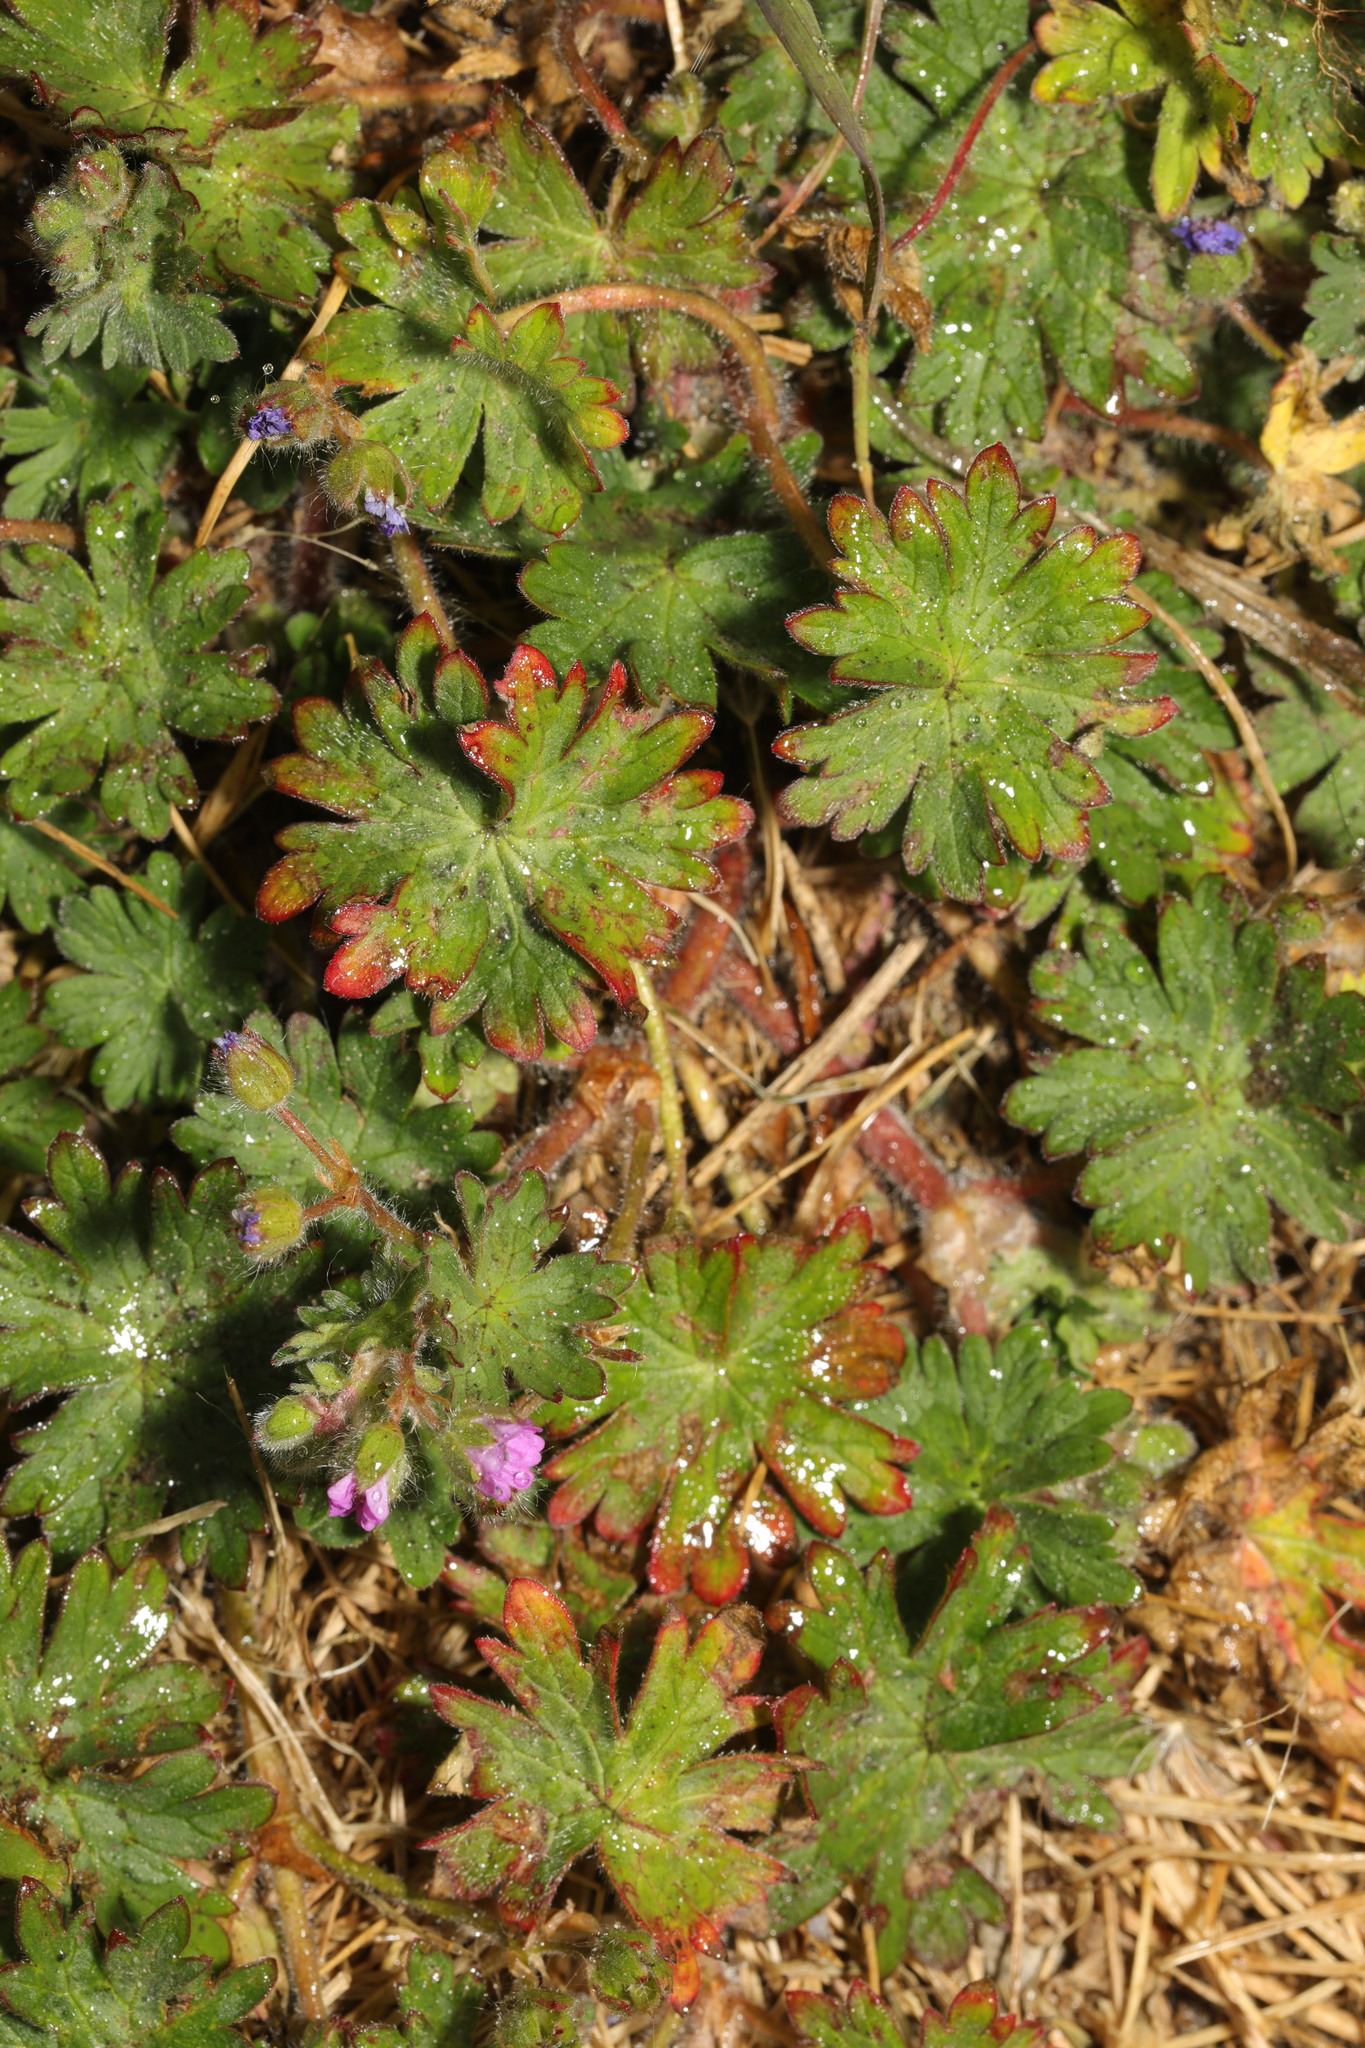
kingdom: Plantae
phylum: Tracheophyta
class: Magnoliopsida
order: Geraniales
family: Geraniaceae
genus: Geranium
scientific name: Geranium molle
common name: Dove's-foot crane's-bill
